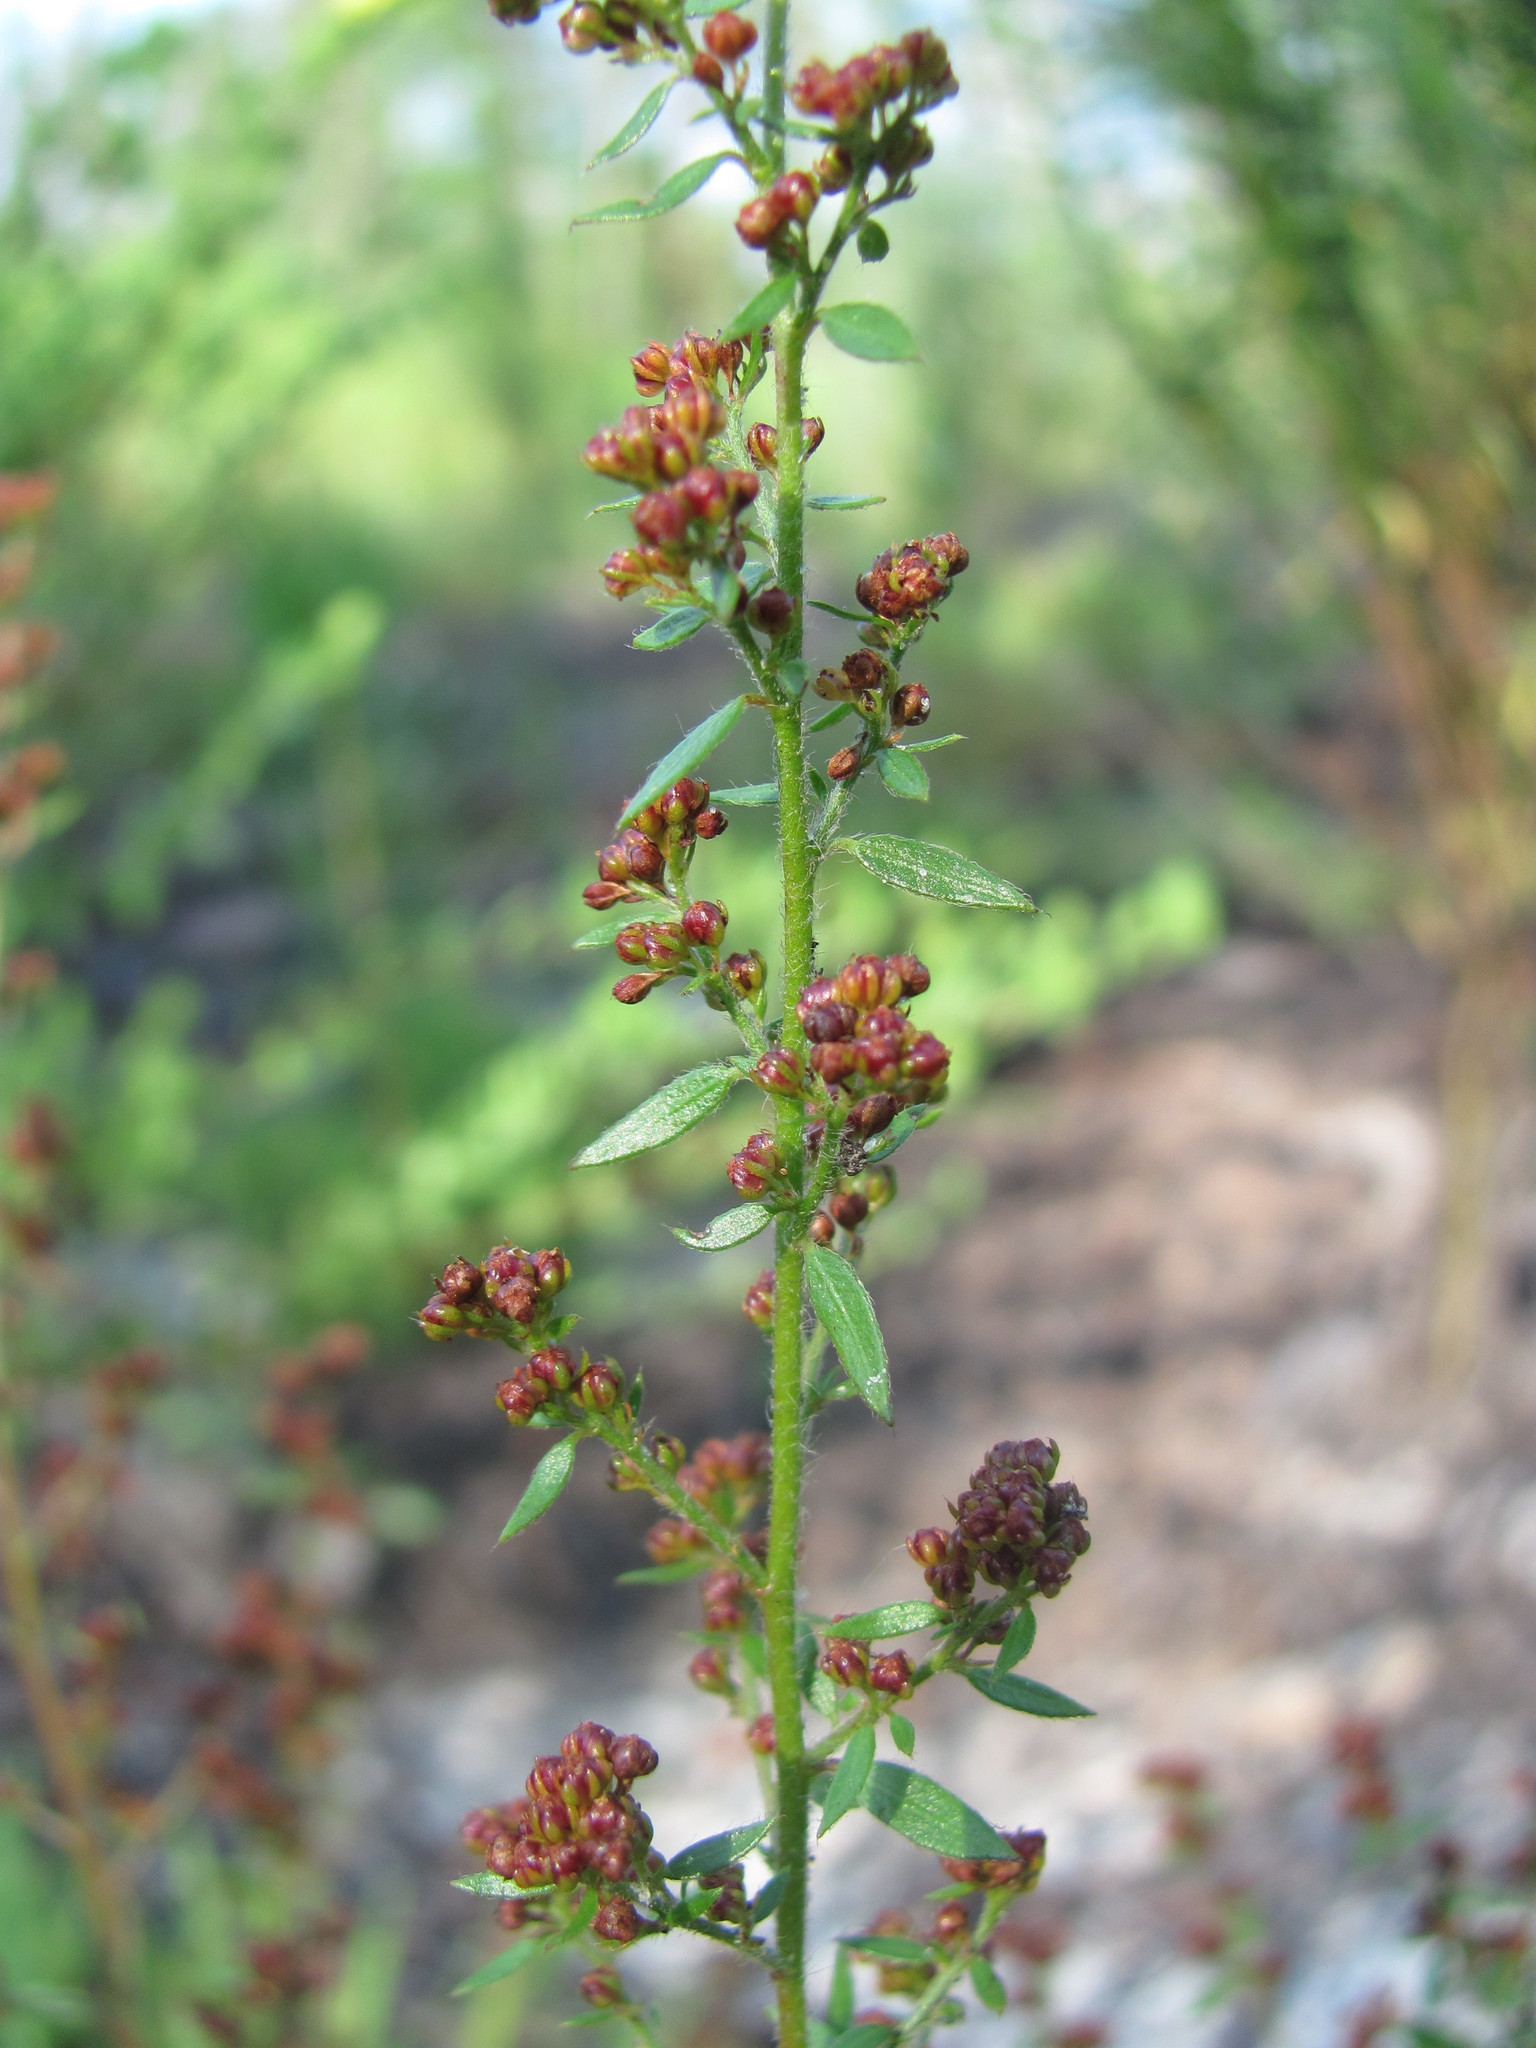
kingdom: Plantae
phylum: Tracheophyta
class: Magnoliopsida
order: Malvales
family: Cistaceae
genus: Lechea
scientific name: Lechea mucronata
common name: Hairy pinweed
